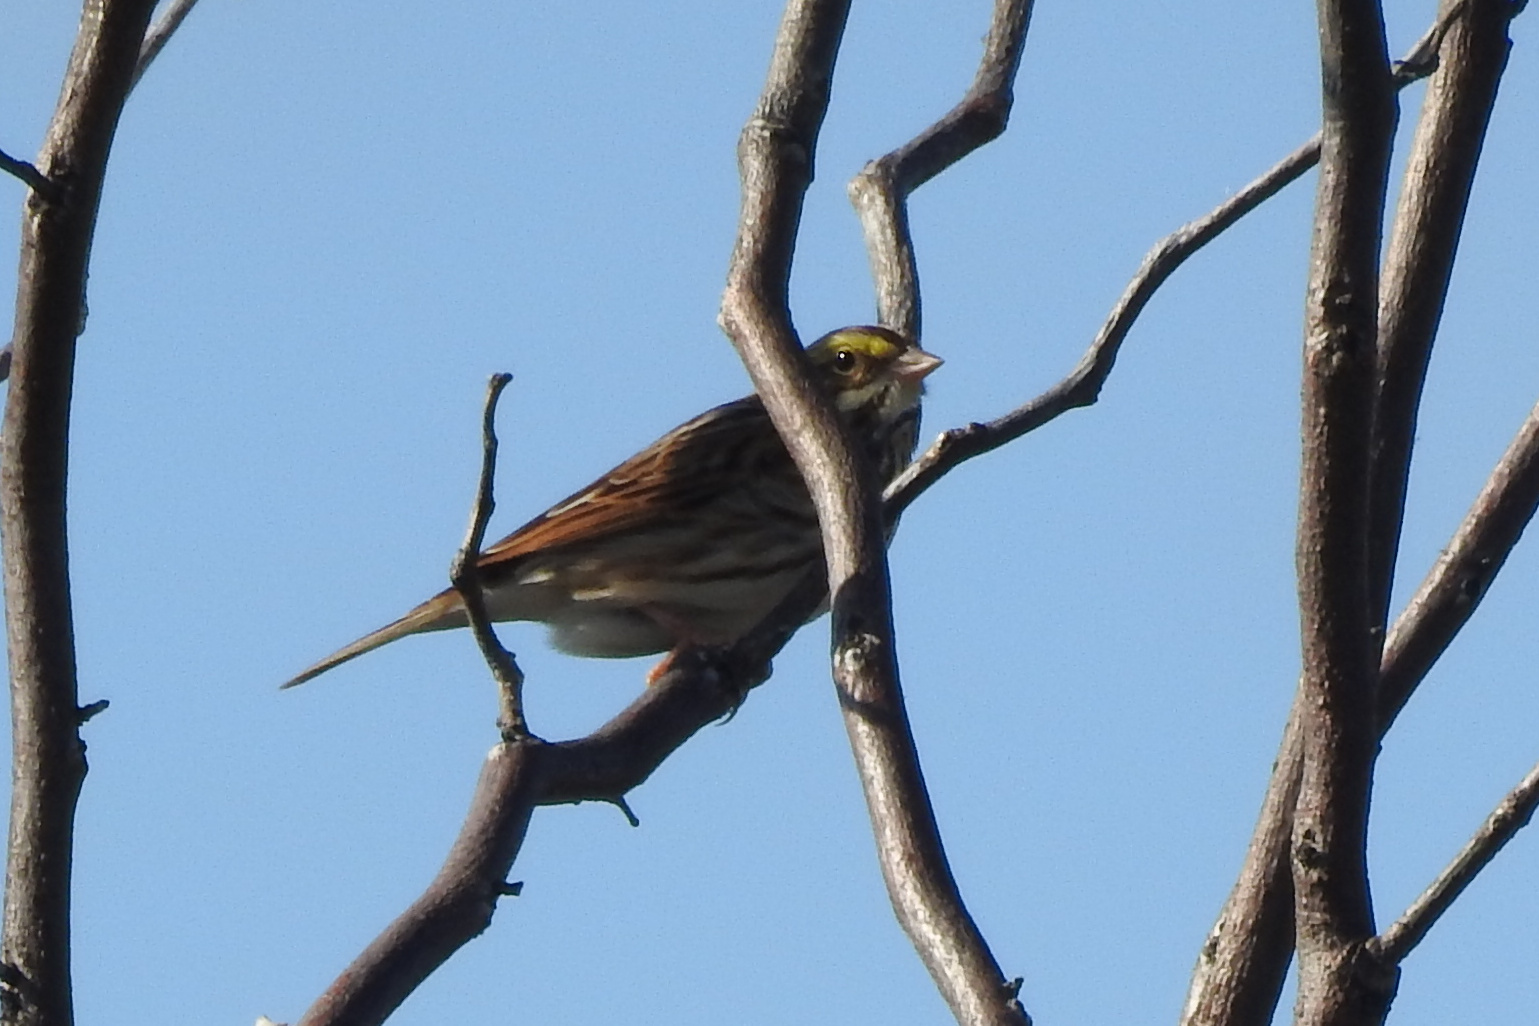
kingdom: Animalia
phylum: Chordata
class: Aves
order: Passeriformes
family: Passerellidae
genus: Passerculus
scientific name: Passerculus sandwichensis
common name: Savannah sparrow
